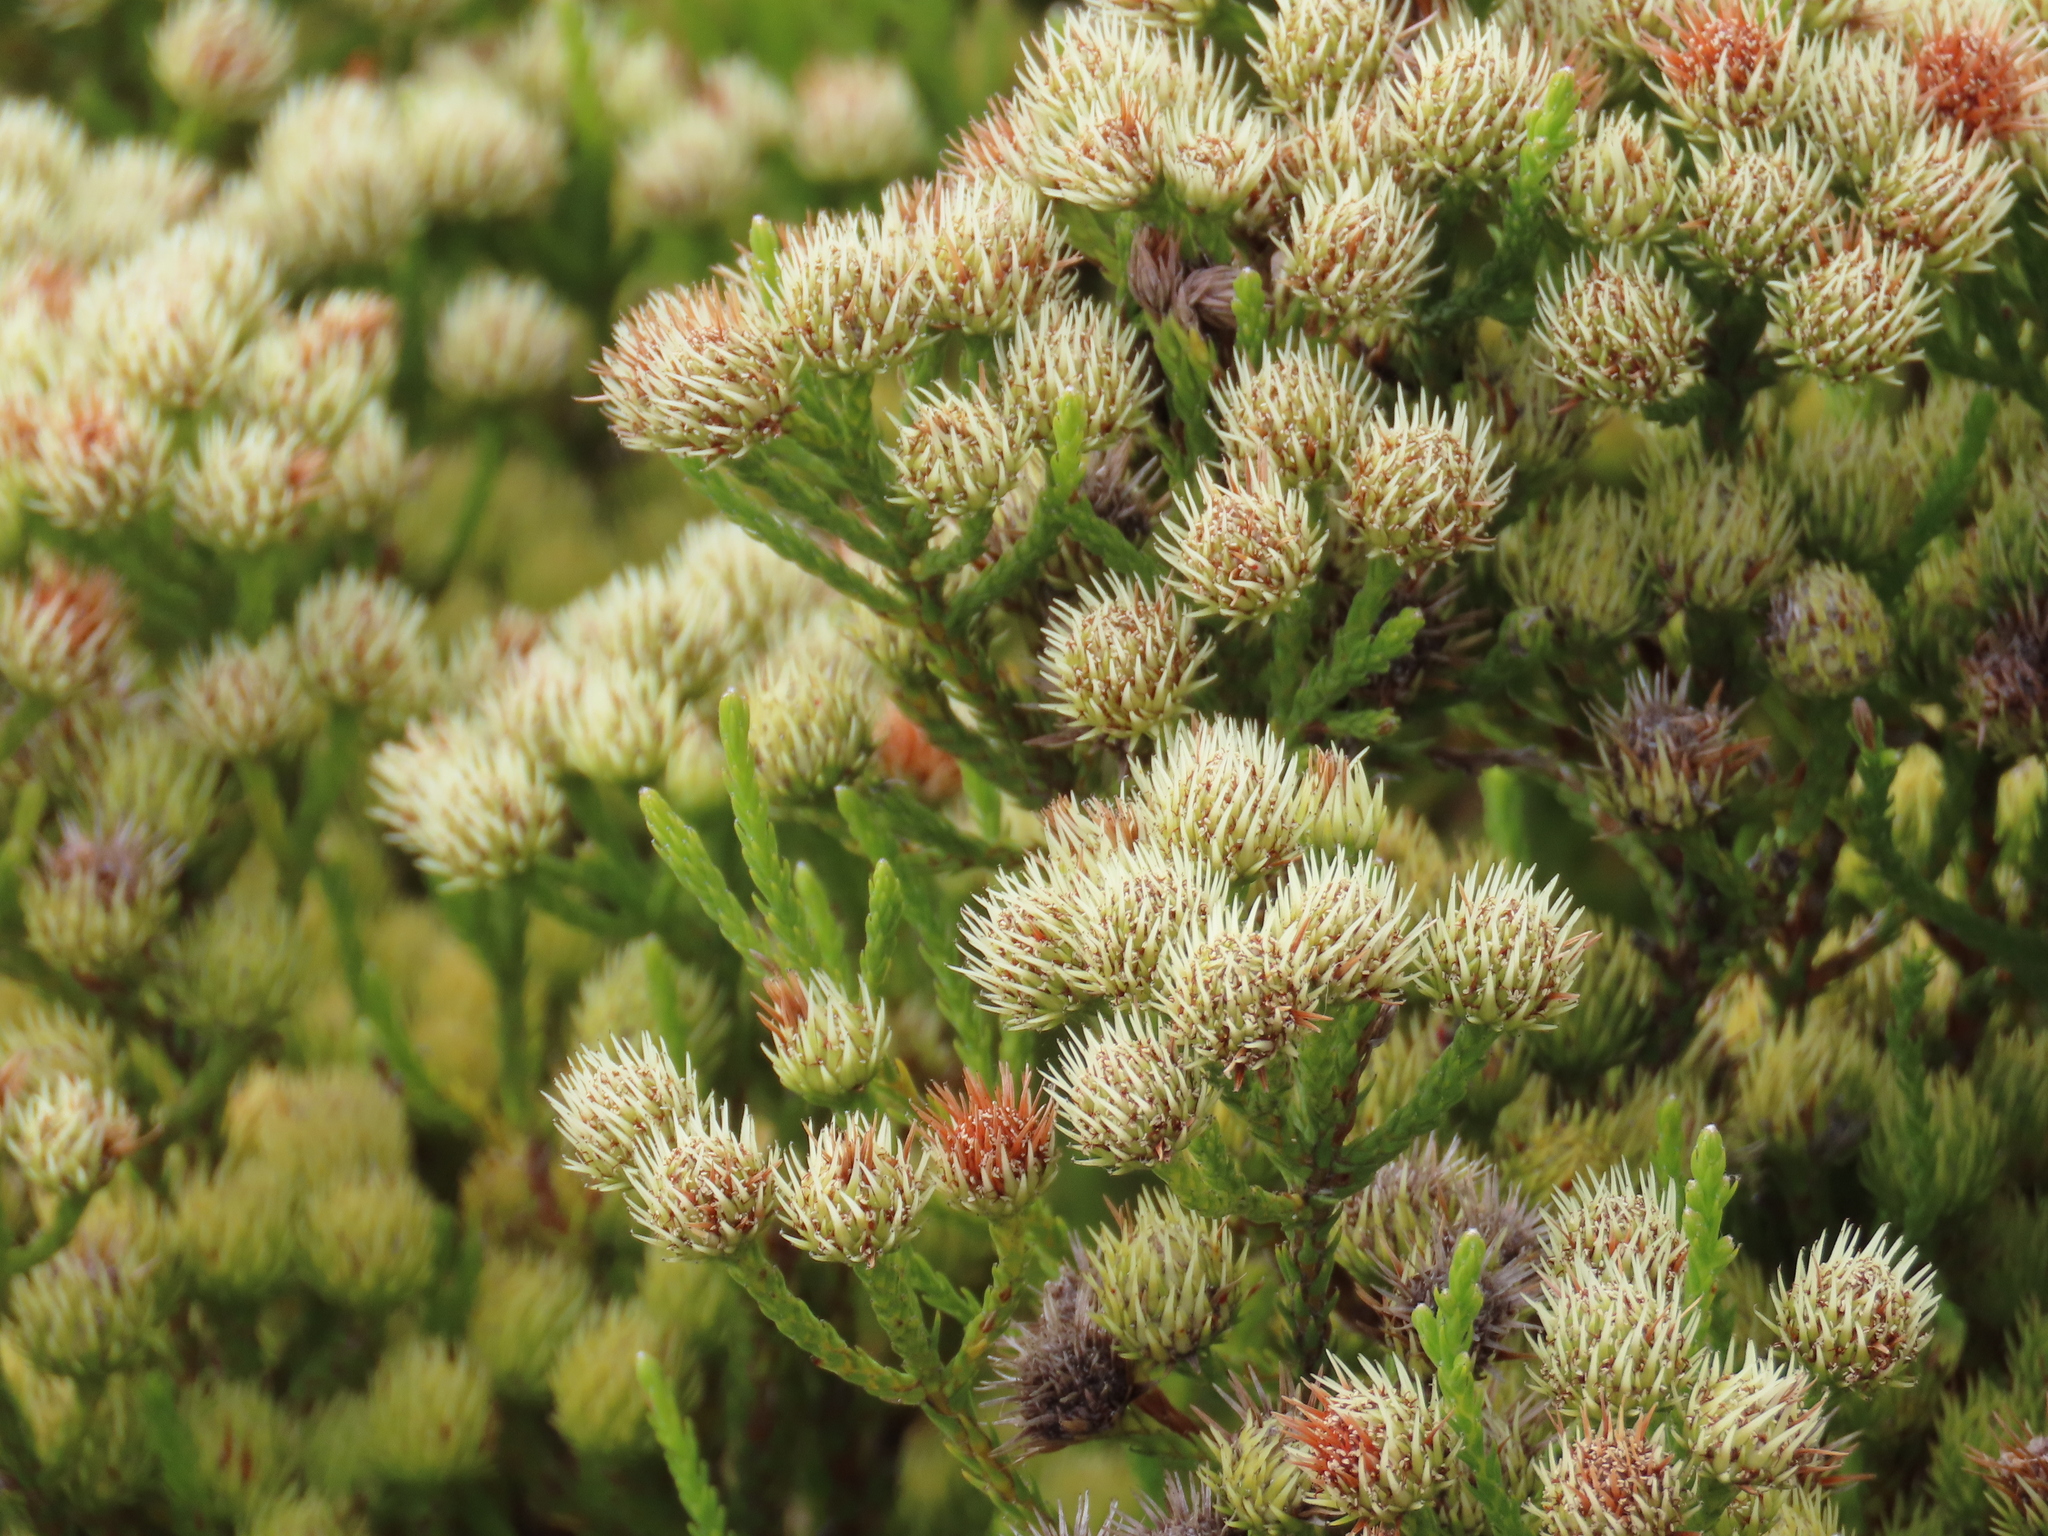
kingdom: Plantae
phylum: Tracheophyta
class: Magnoliopsida
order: Bruniales
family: Bruniaceae
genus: Brunia
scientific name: Brunia paleacea
